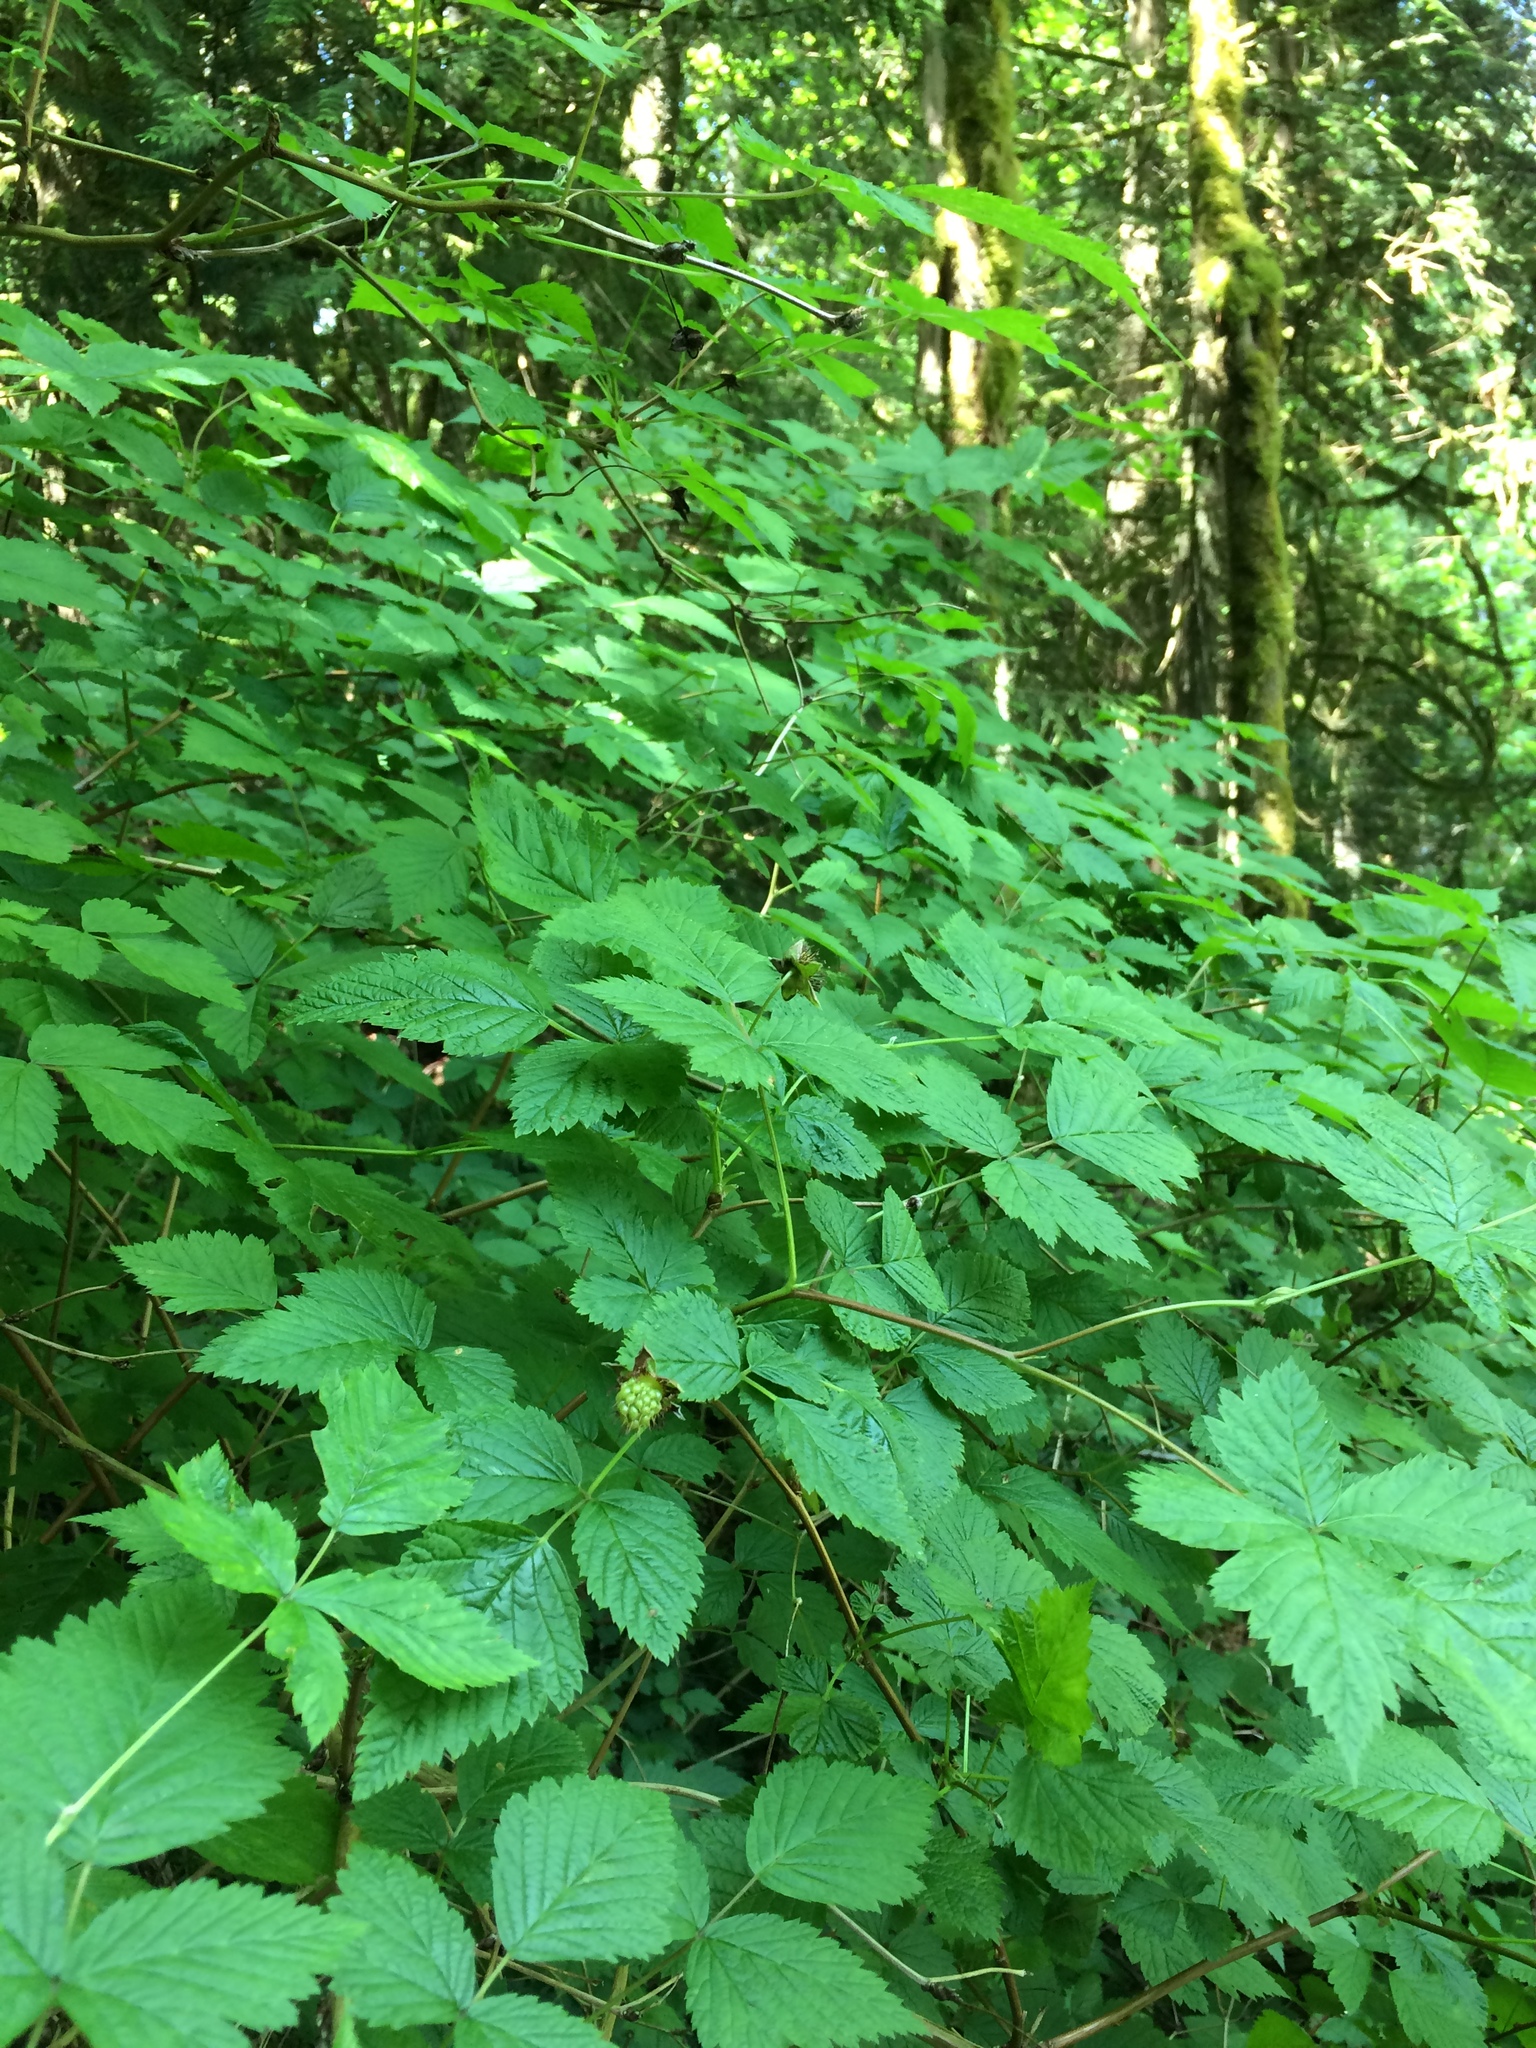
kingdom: Plantae
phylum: Tracheophyta
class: Magnoliopsida
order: Rosales
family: Rosaceae
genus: Rubus
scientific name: Rubus spectabilis
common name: Salmonberry
